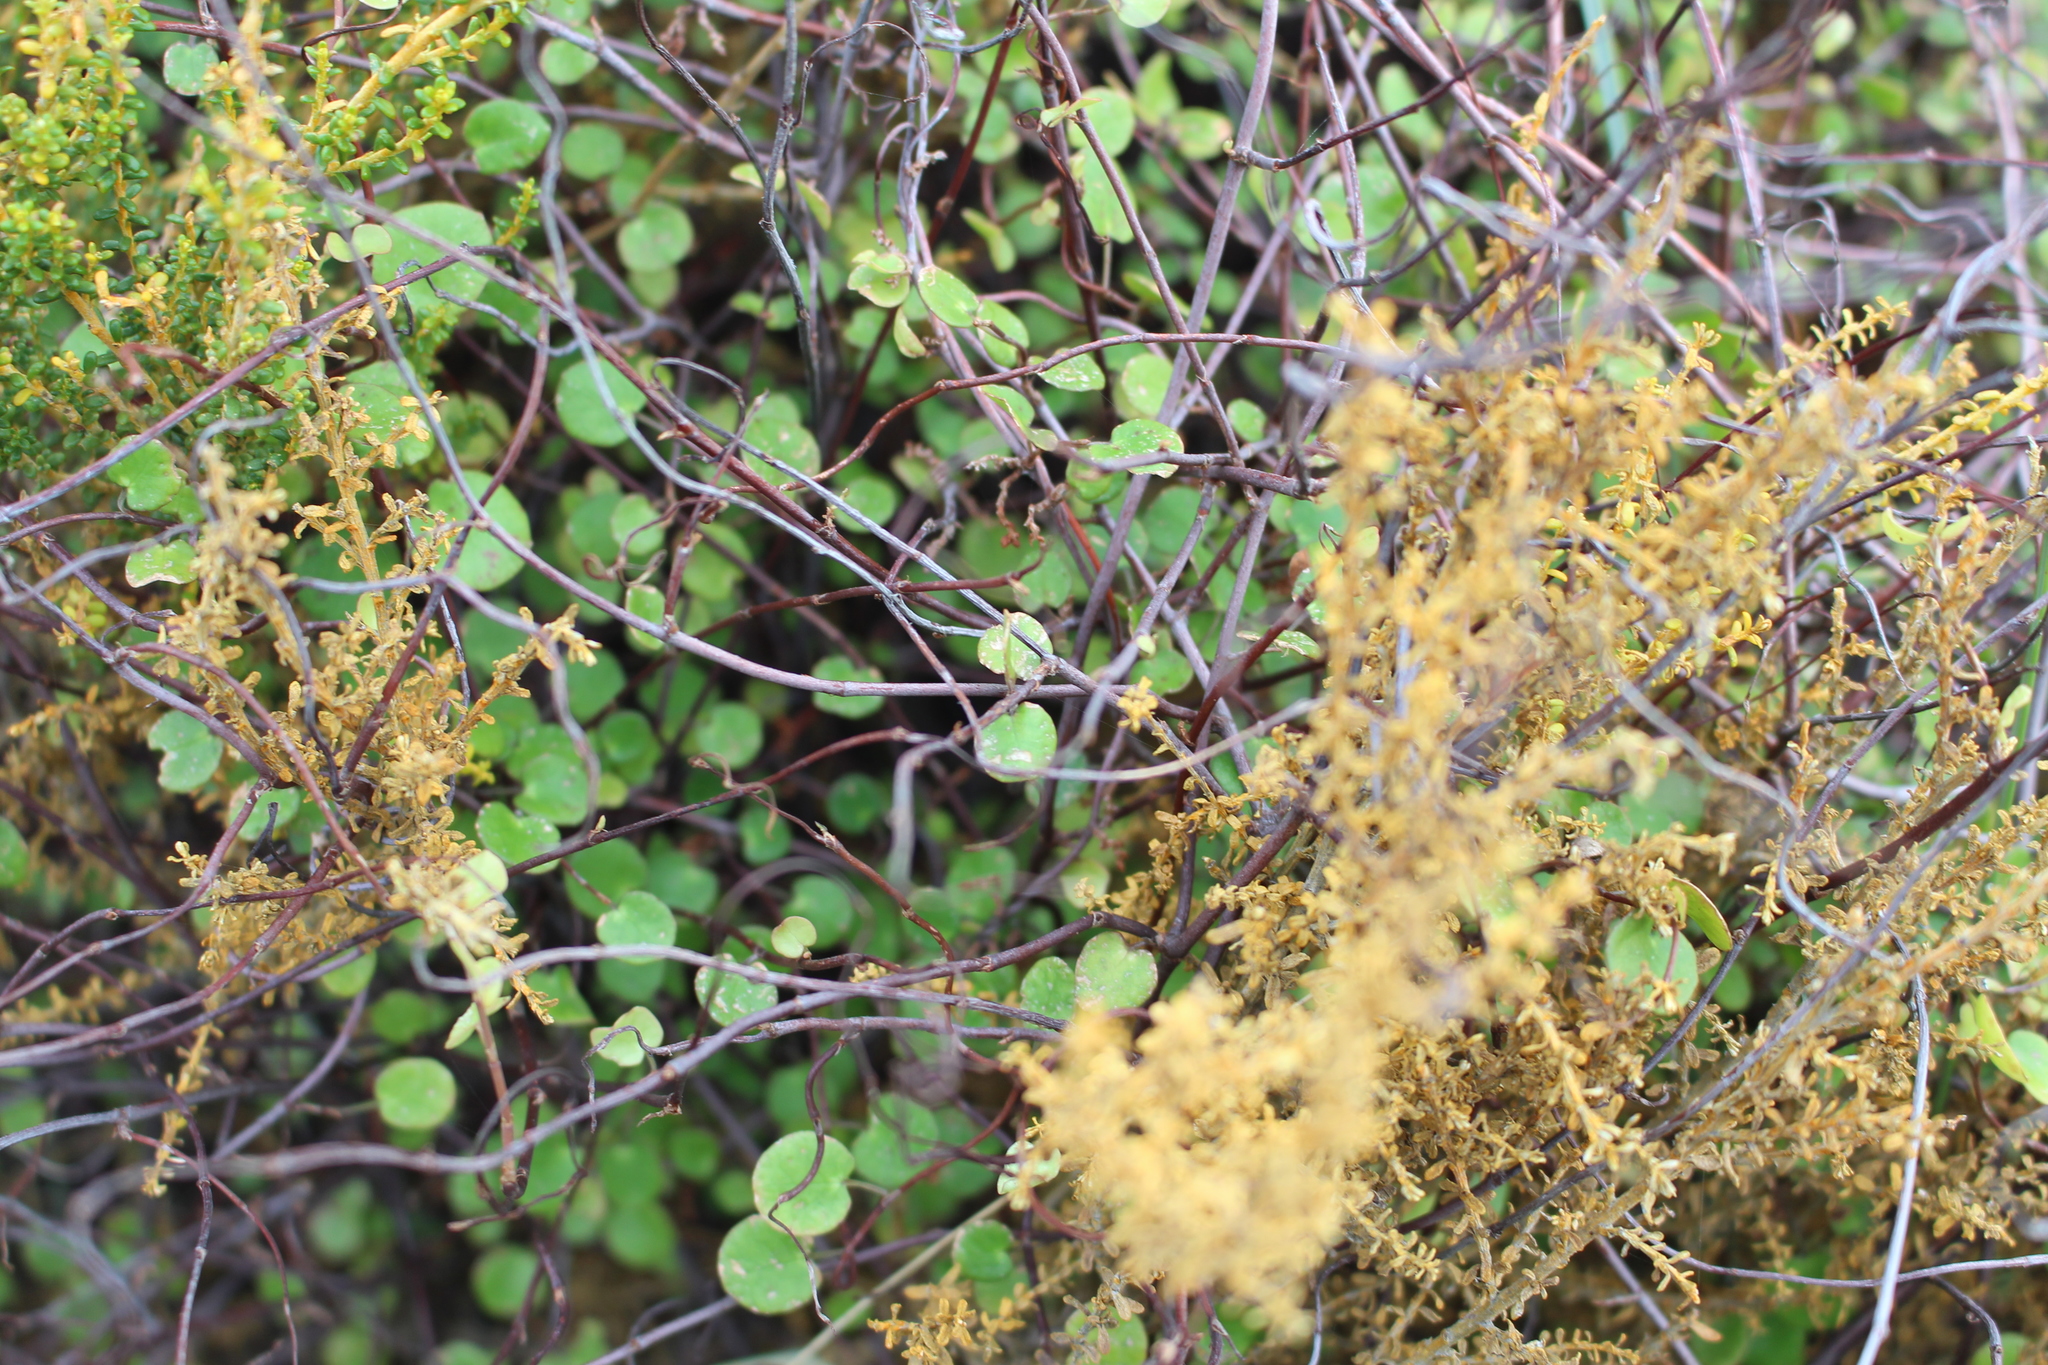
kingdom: Plantae
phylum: Tracheophyta
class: Magnoliopsida
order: Caryophyllales
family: Polygonaceae
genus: Muehlenbeckia
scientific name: Muehlenbeckia complexa
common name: Wireplant
